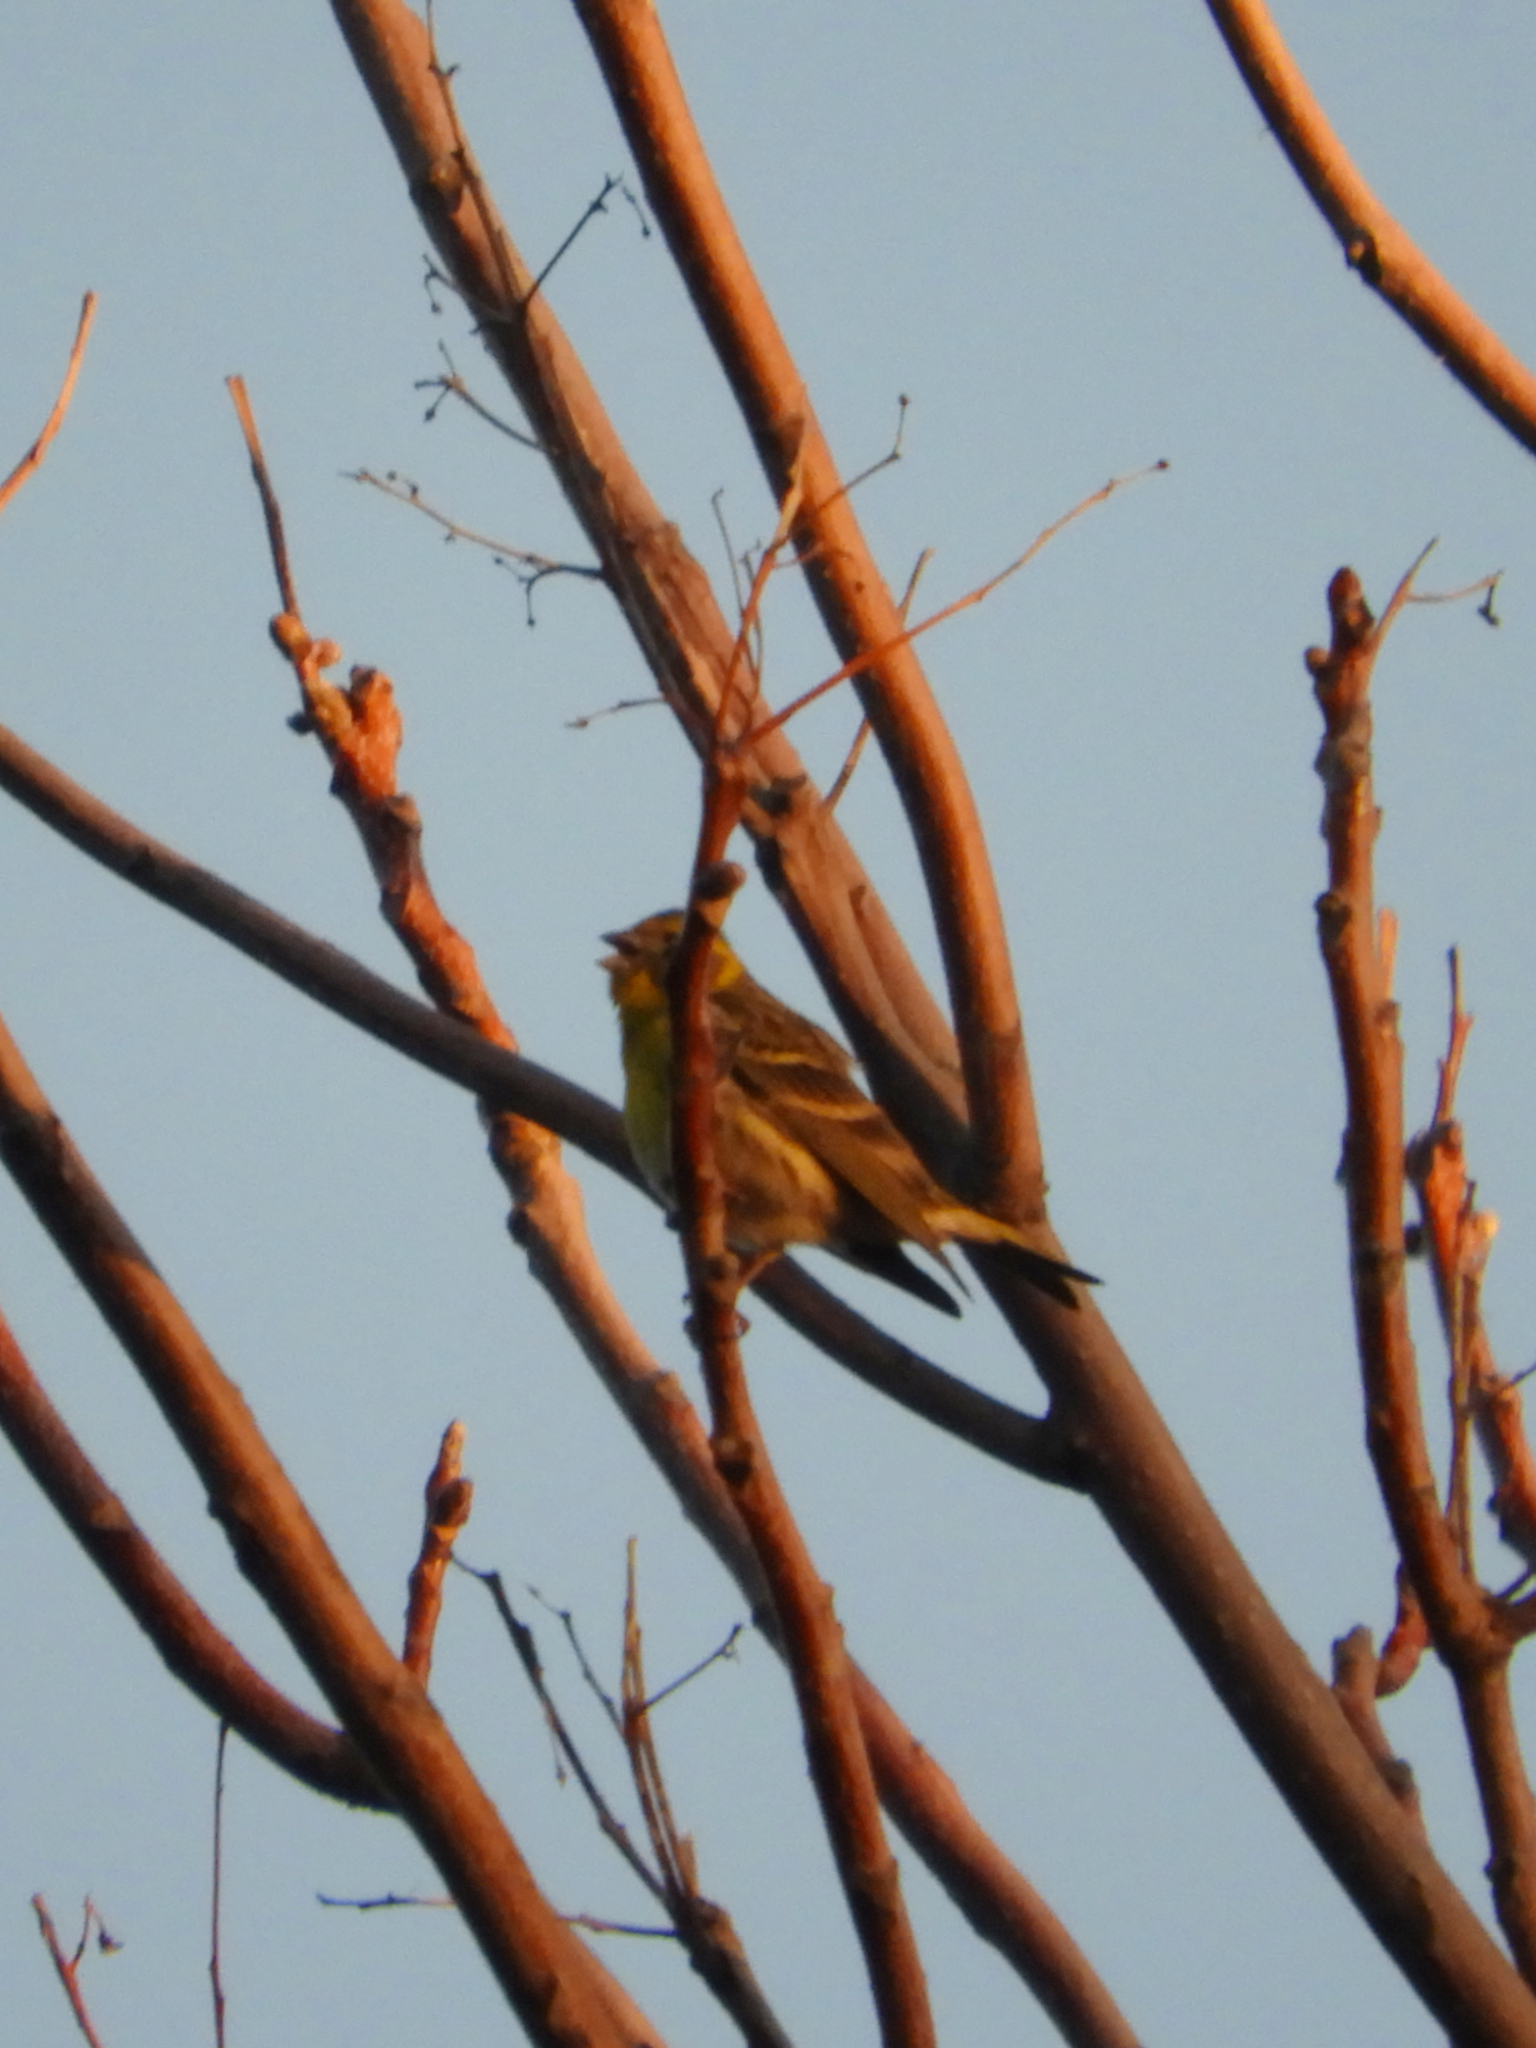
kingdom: Animalia
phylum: Chordata
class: Aves
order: Passeriformes
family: Fringillidae
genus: Serinus
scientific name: Serinus serinus
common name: European serin
